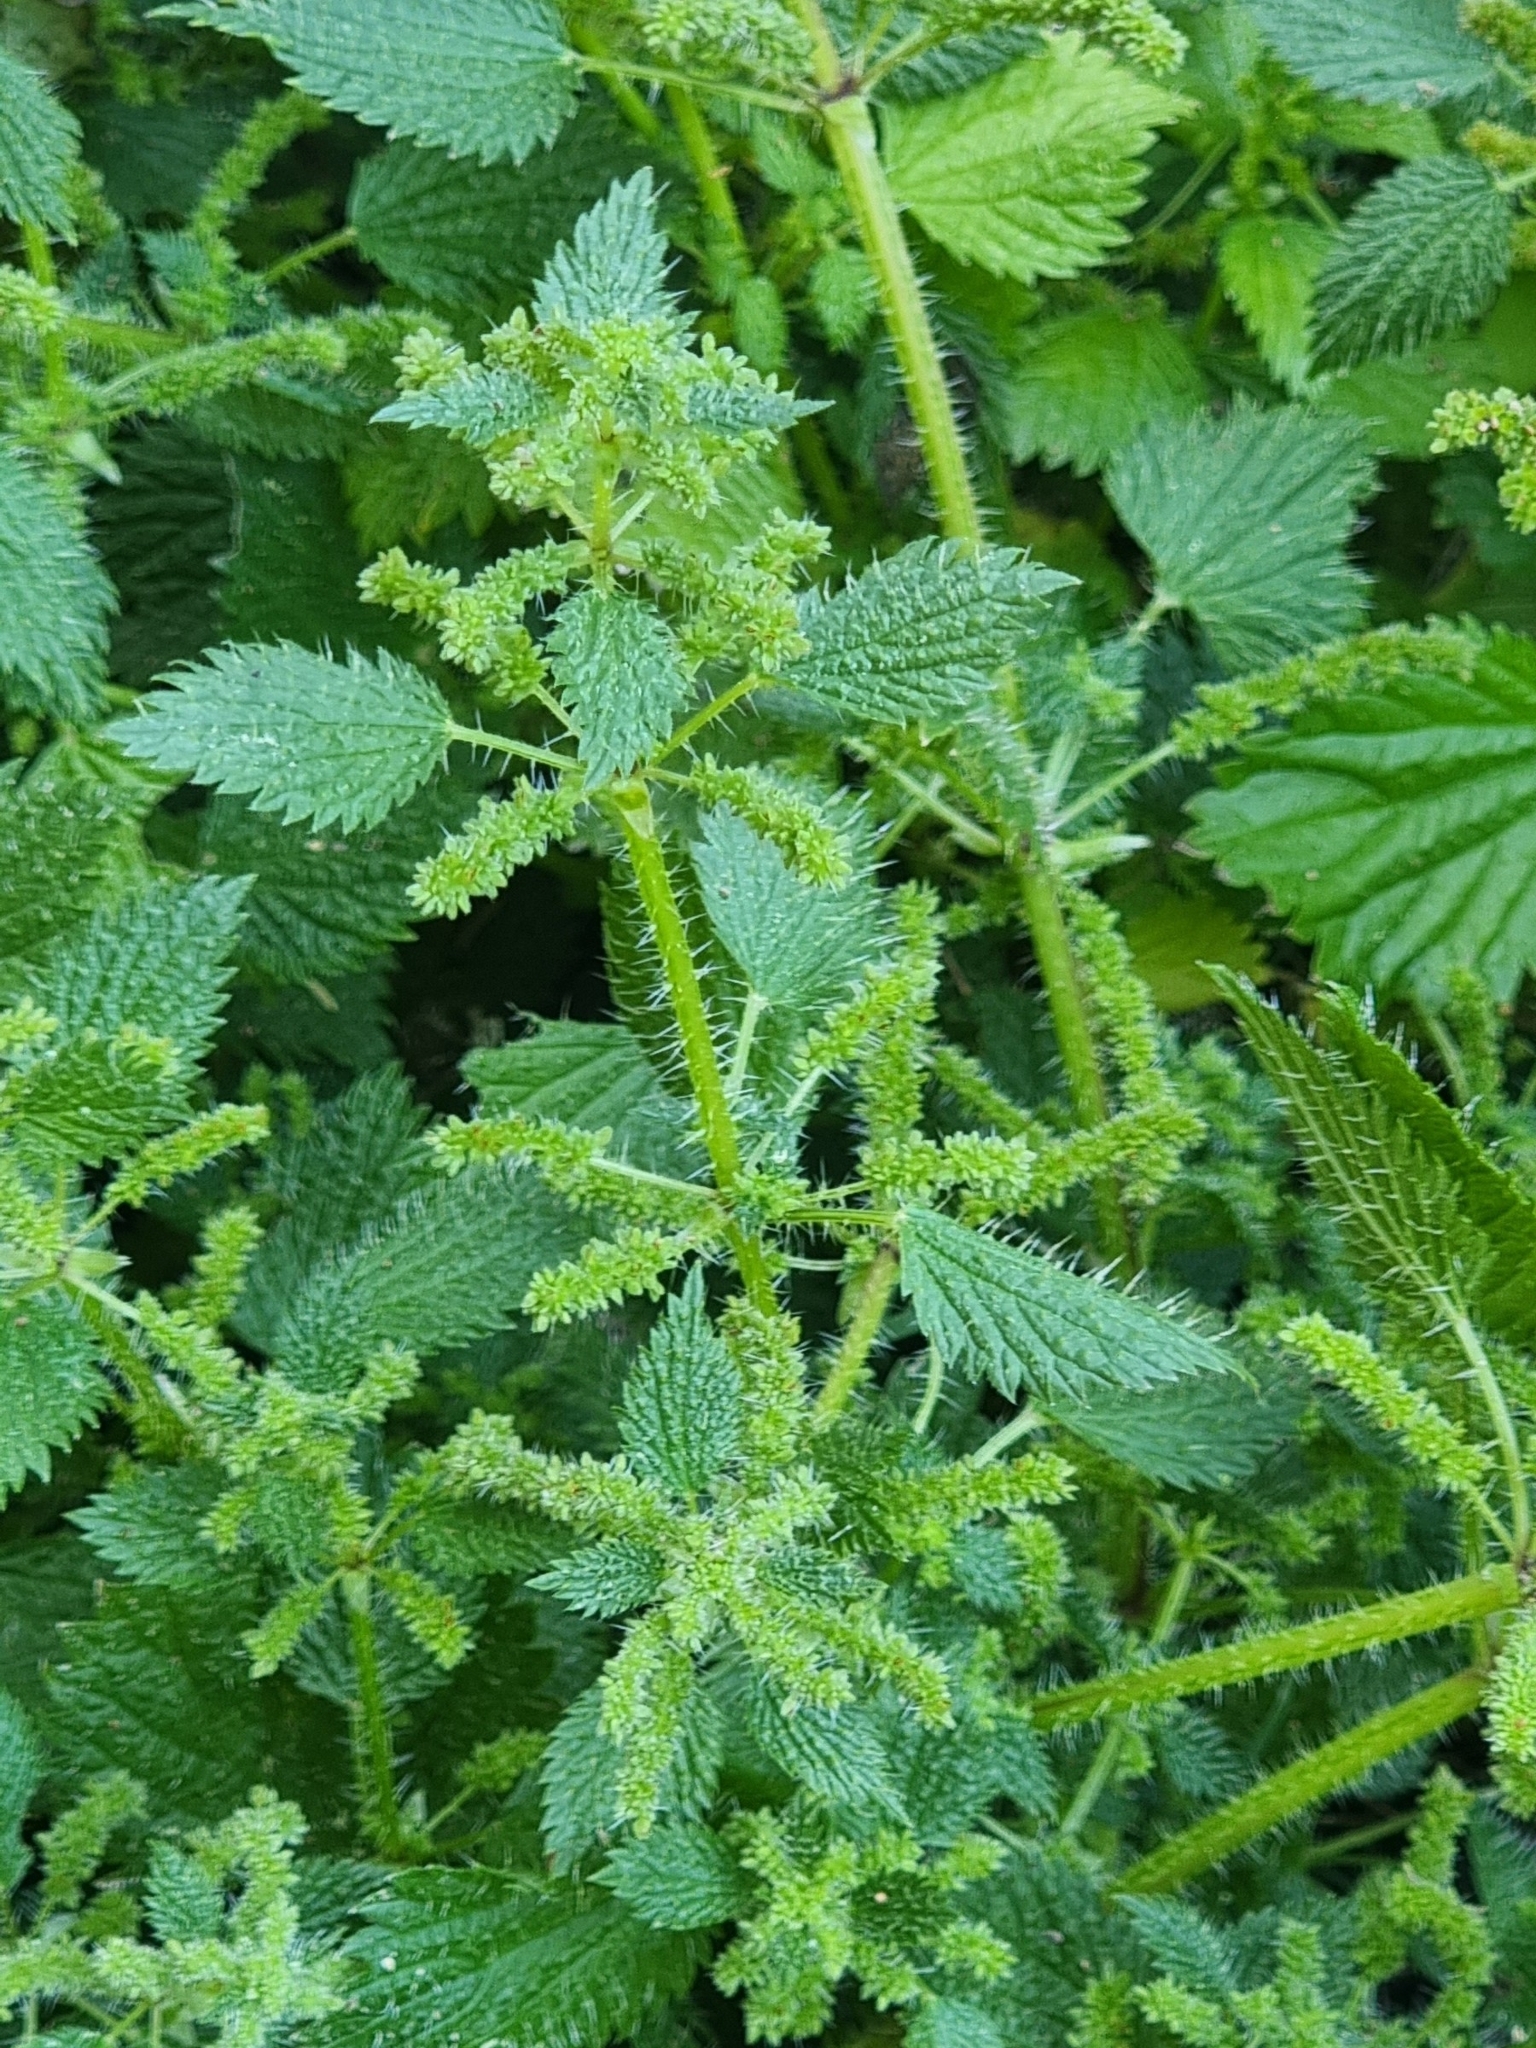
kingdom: Plantae
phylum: Tracheophyta
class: Magnoliopsida
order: Rosales
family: Urticaceae
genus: Urtica
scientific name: Urtica membranacea
